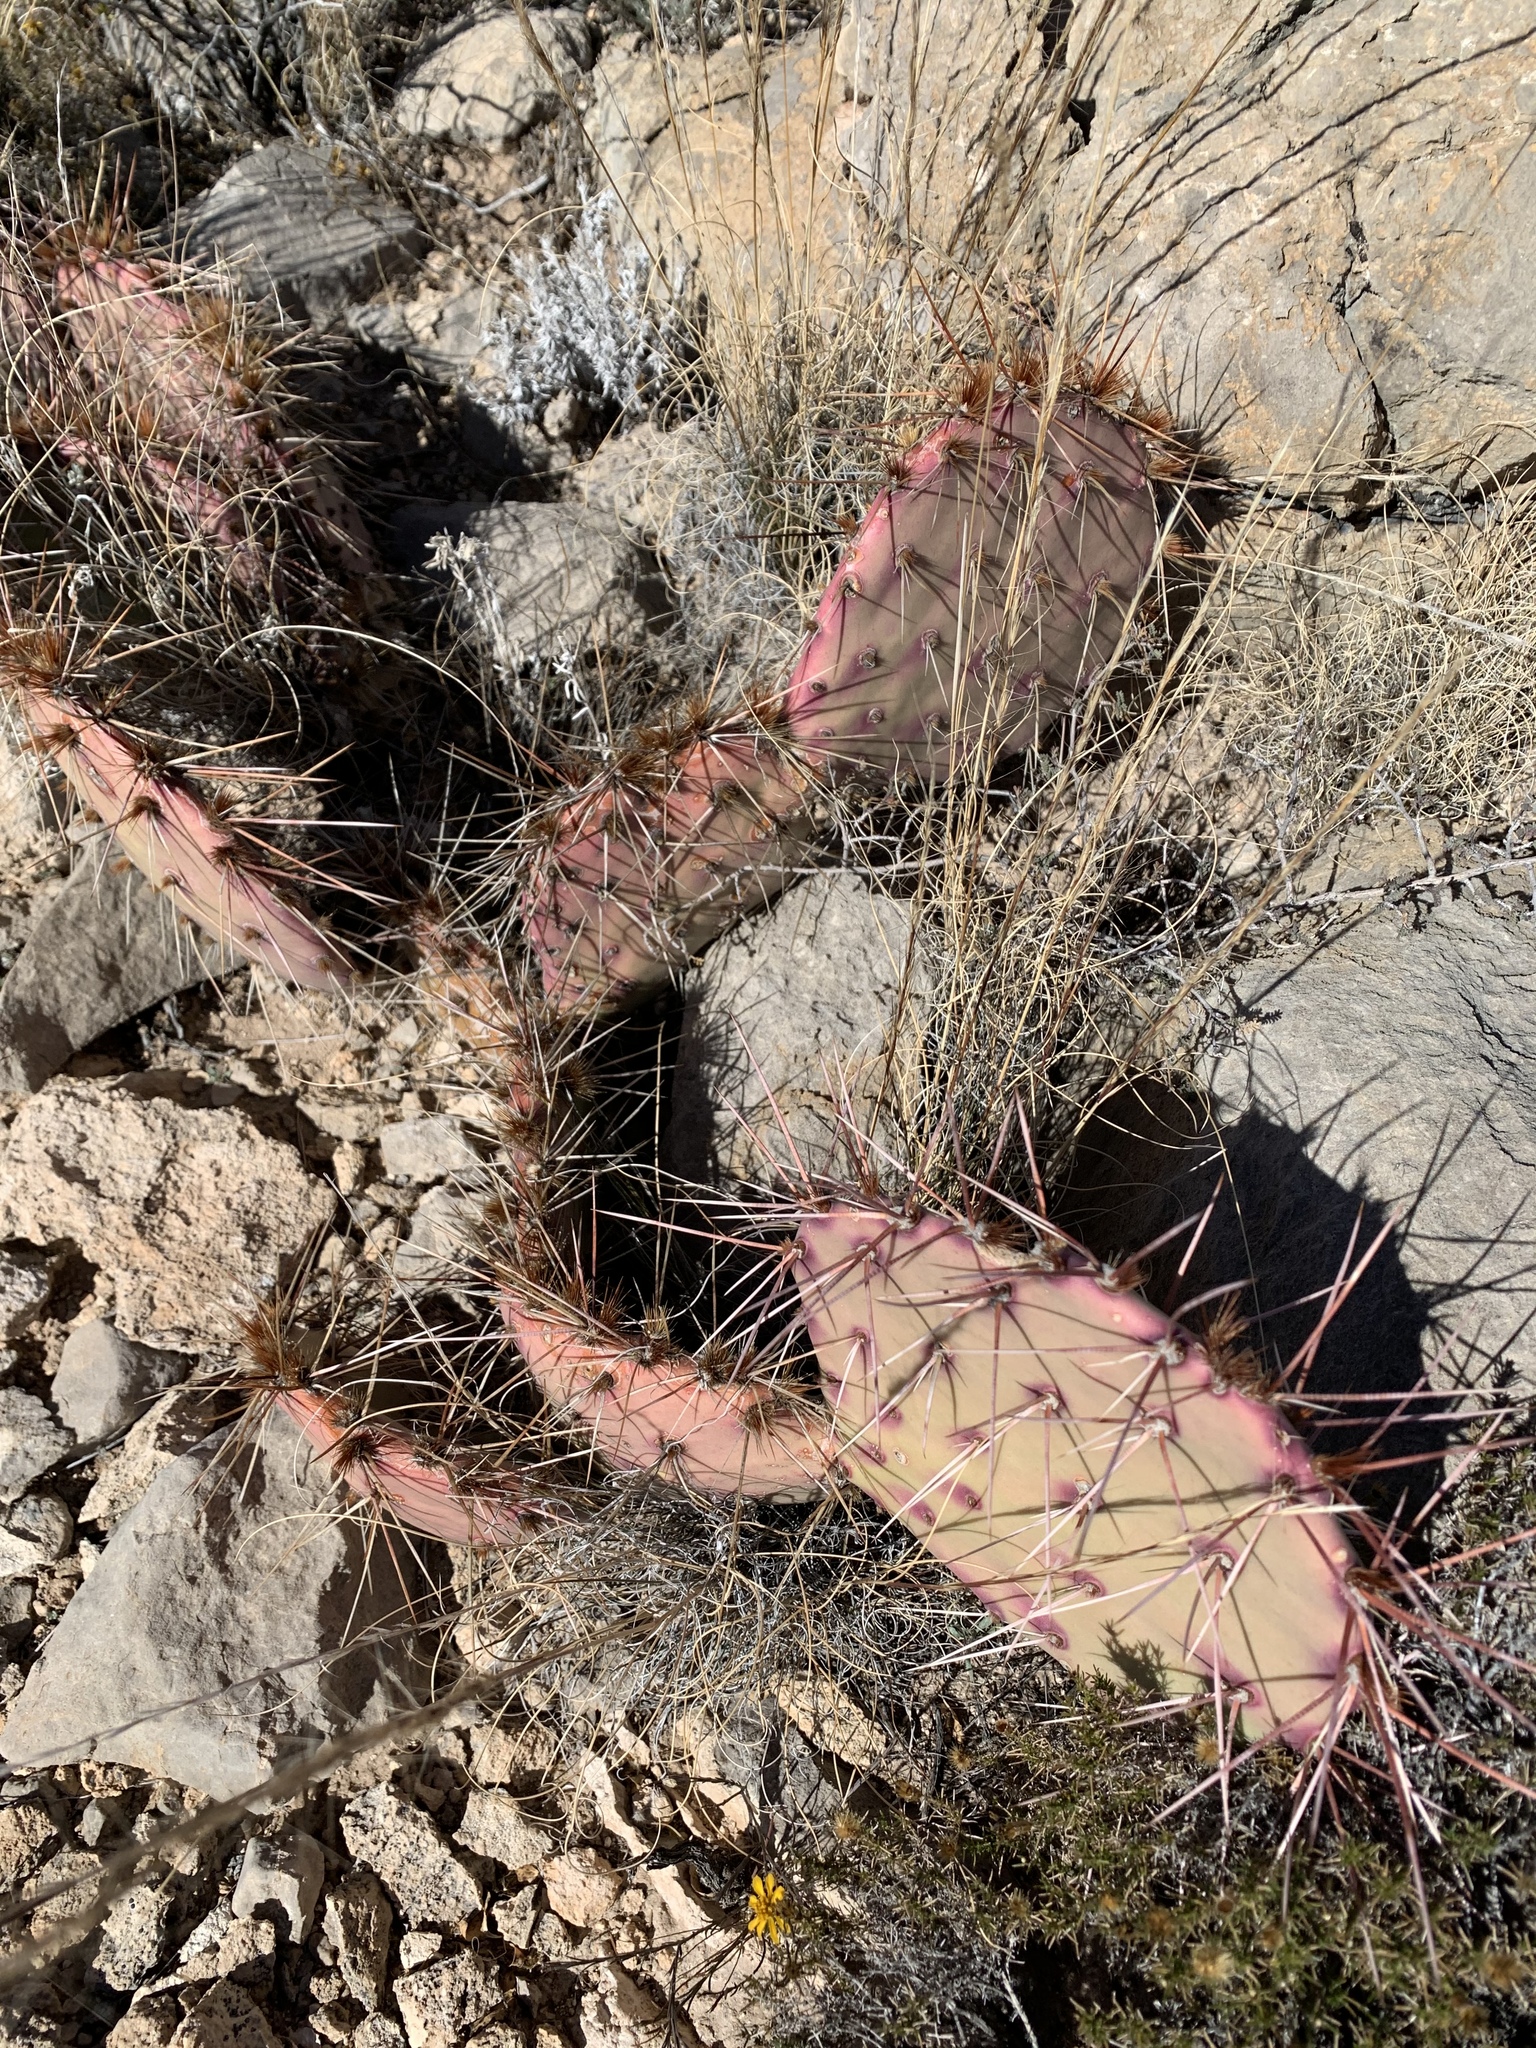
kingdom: Plantae
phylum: Tracheophyta
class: Magnoliopsida
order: Caryophyllales
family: Cactaceae
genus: Opuntia
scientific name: Opuntia macrocentra
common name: Purple prickly-pear
